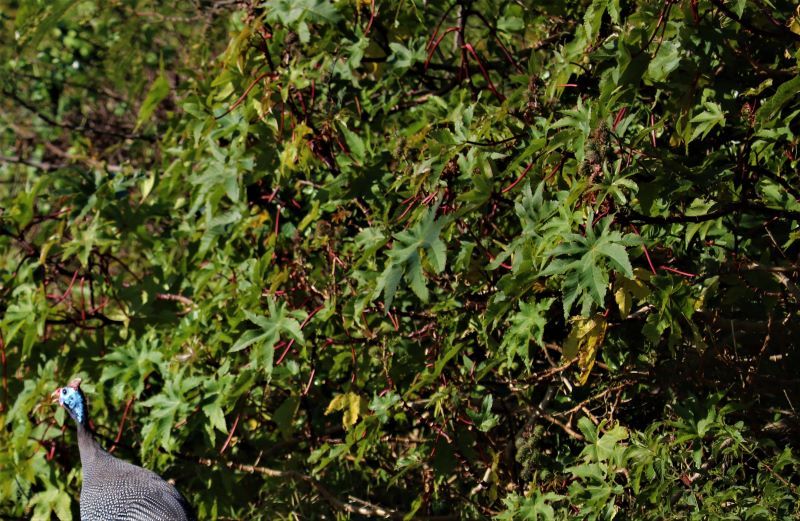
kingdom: Plantae
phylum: Tracheophyta
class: Magnoliopsida
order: Malpighiales
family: Euphorbiaceae
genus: Ricinus
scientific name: Ricinus communis
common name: Castor-oil-plant
